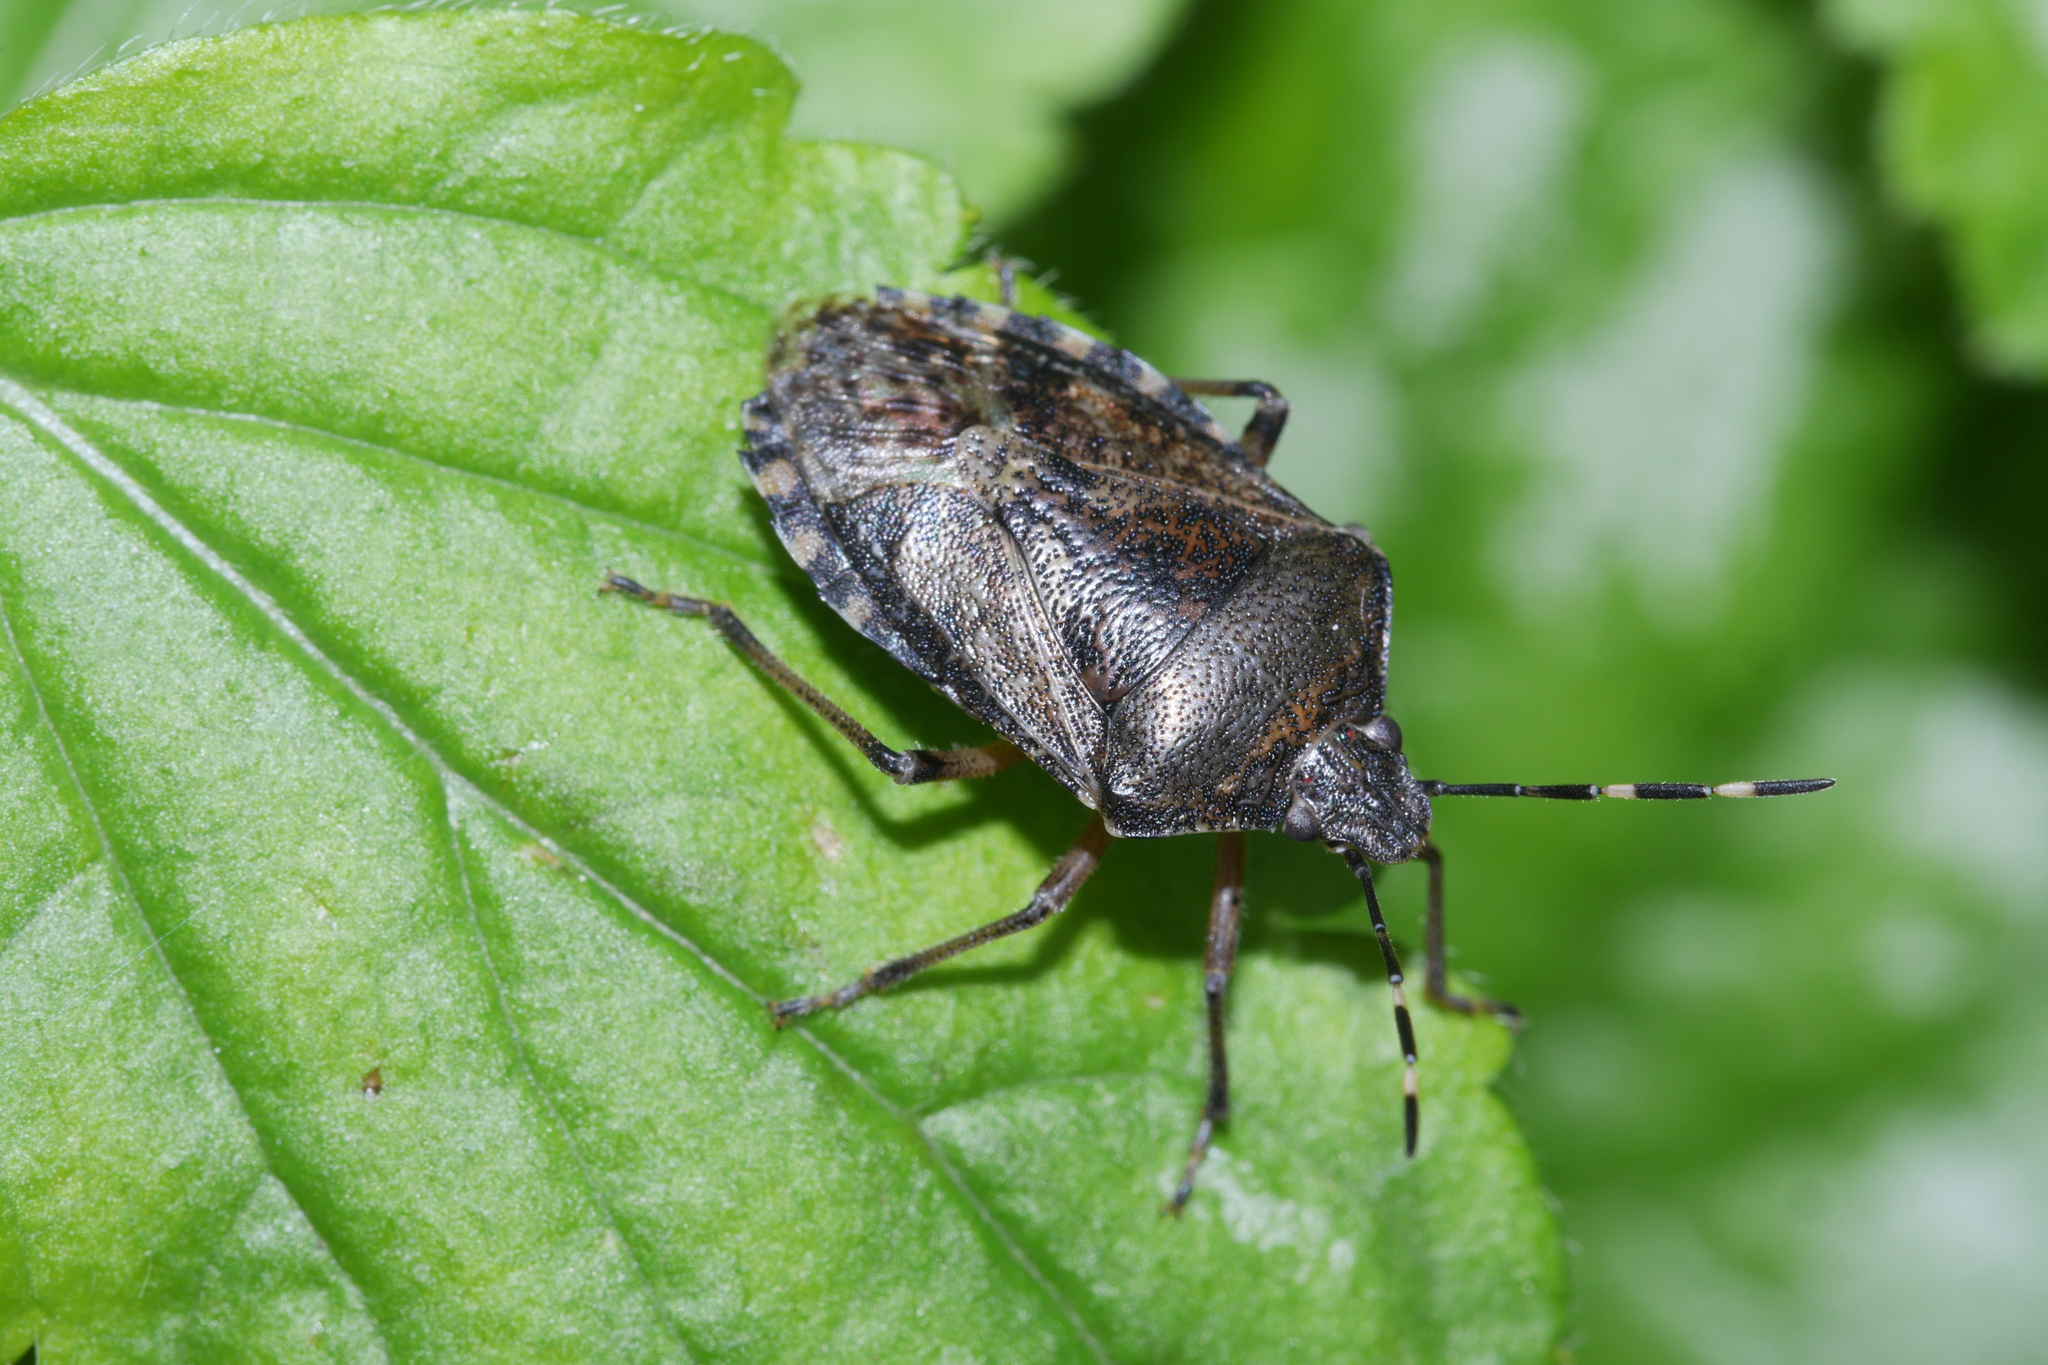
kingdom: Animalia
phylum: Arthropoda
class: Insecta
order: Hemiptera
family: Pentatomidae
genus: Rhaphigaster
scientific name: Rhaphigaster nebulosa
